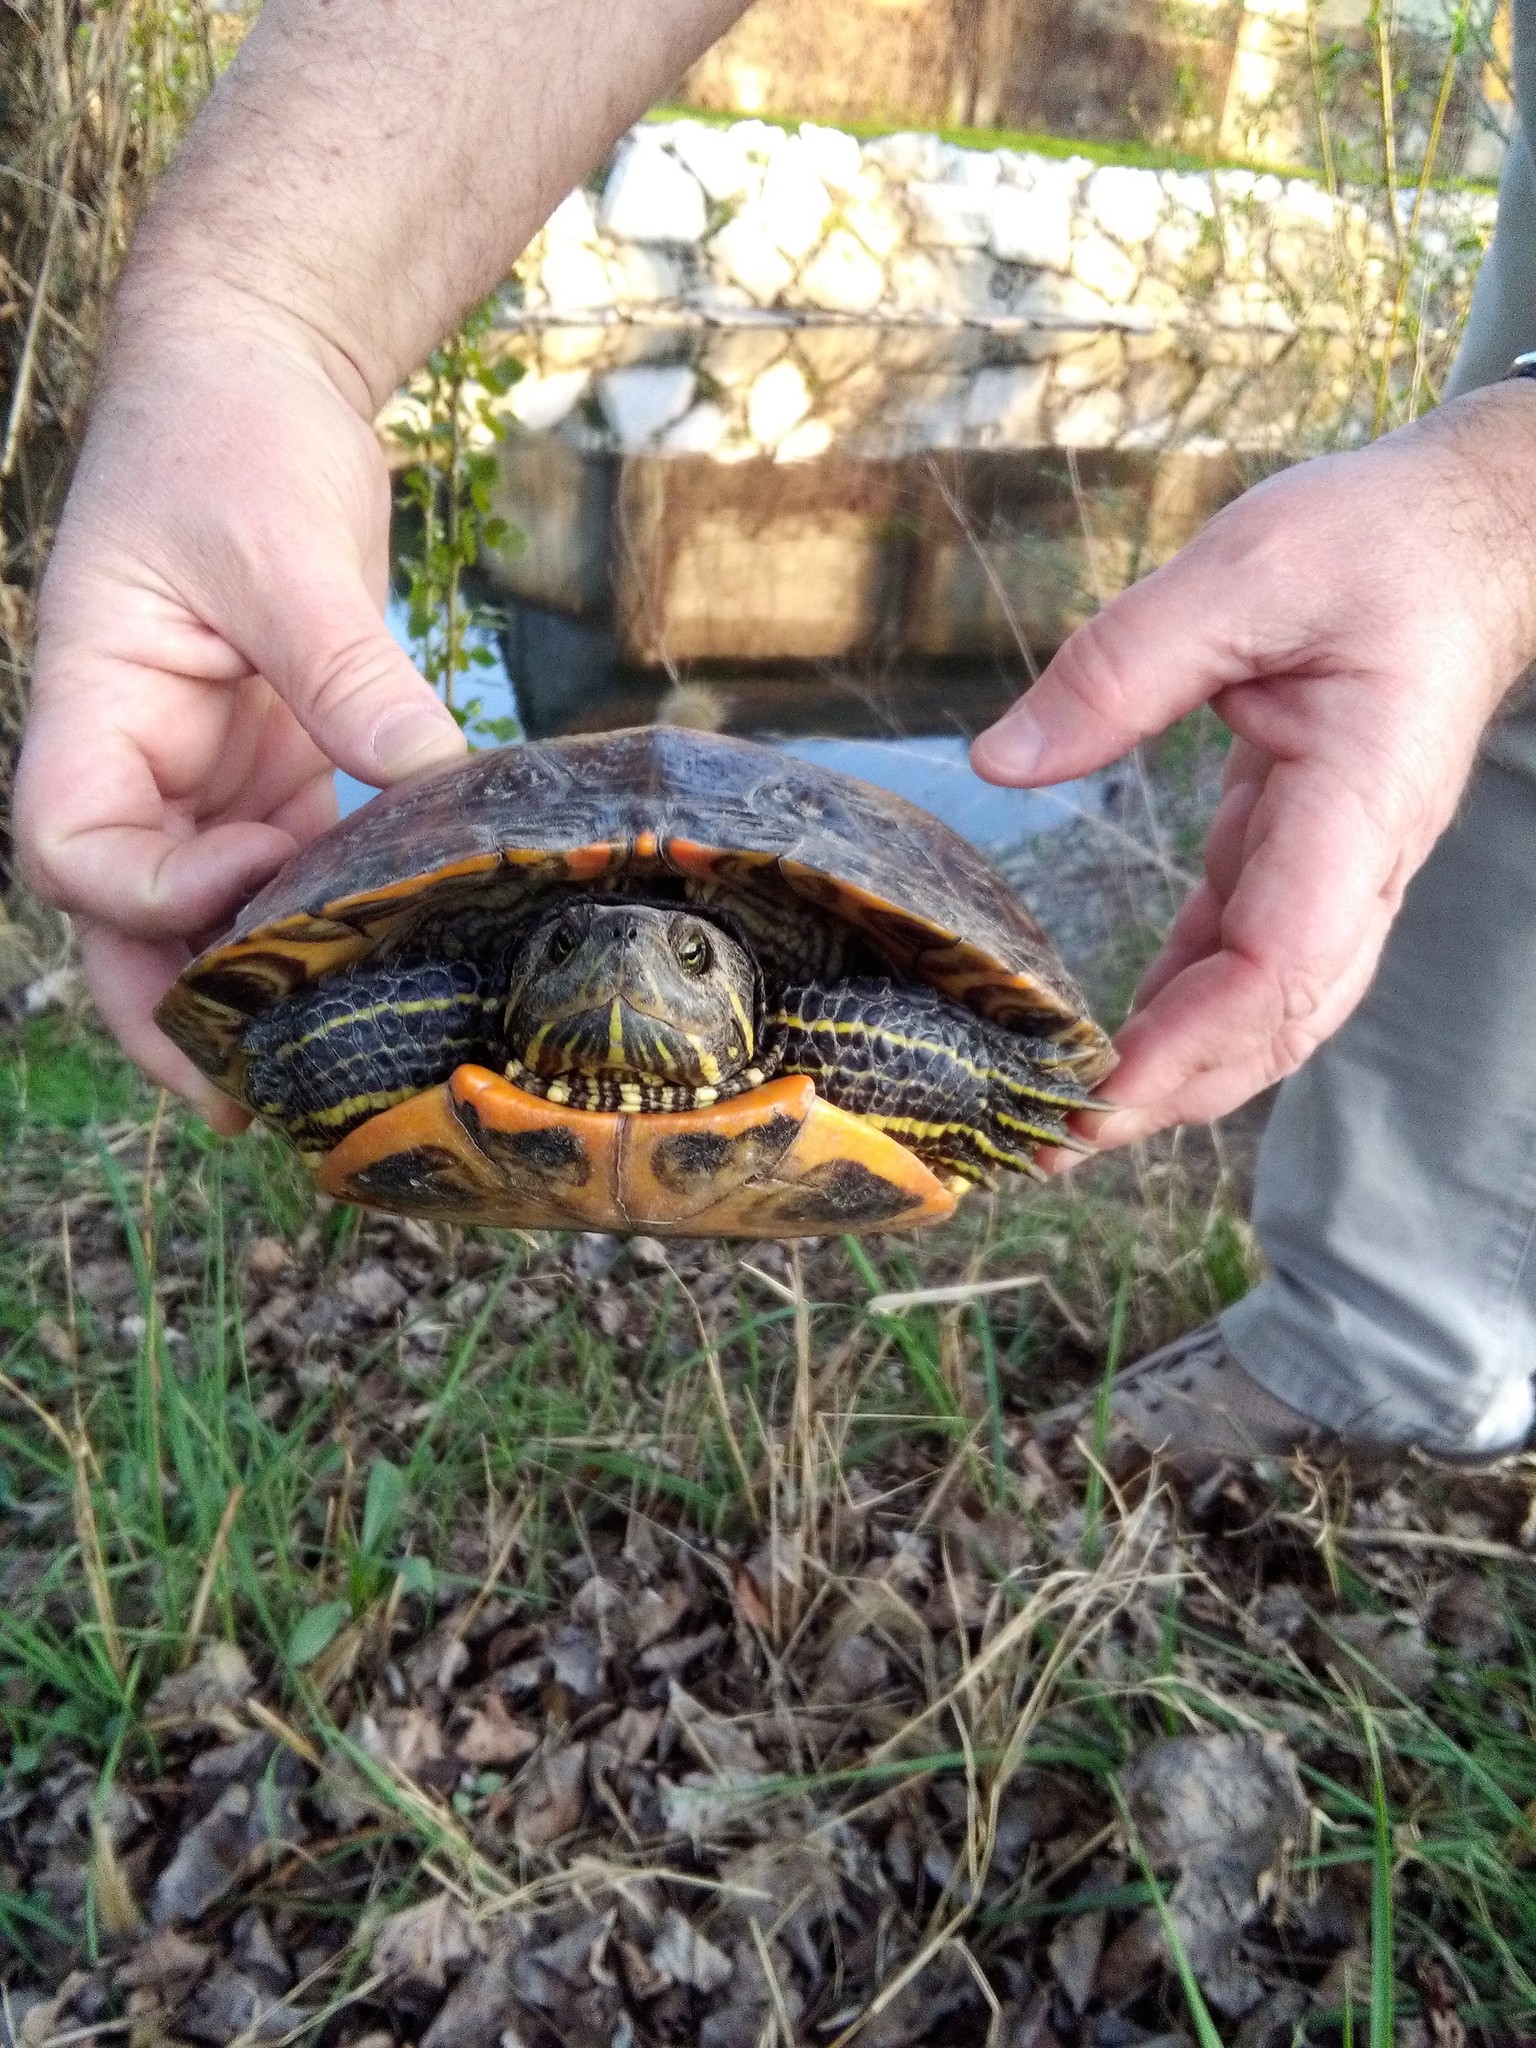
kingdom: Animalia
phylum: Chordata
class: Testudines
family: Emydidae
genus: Trachemys
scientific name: Trachemys scripta
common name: Slider
